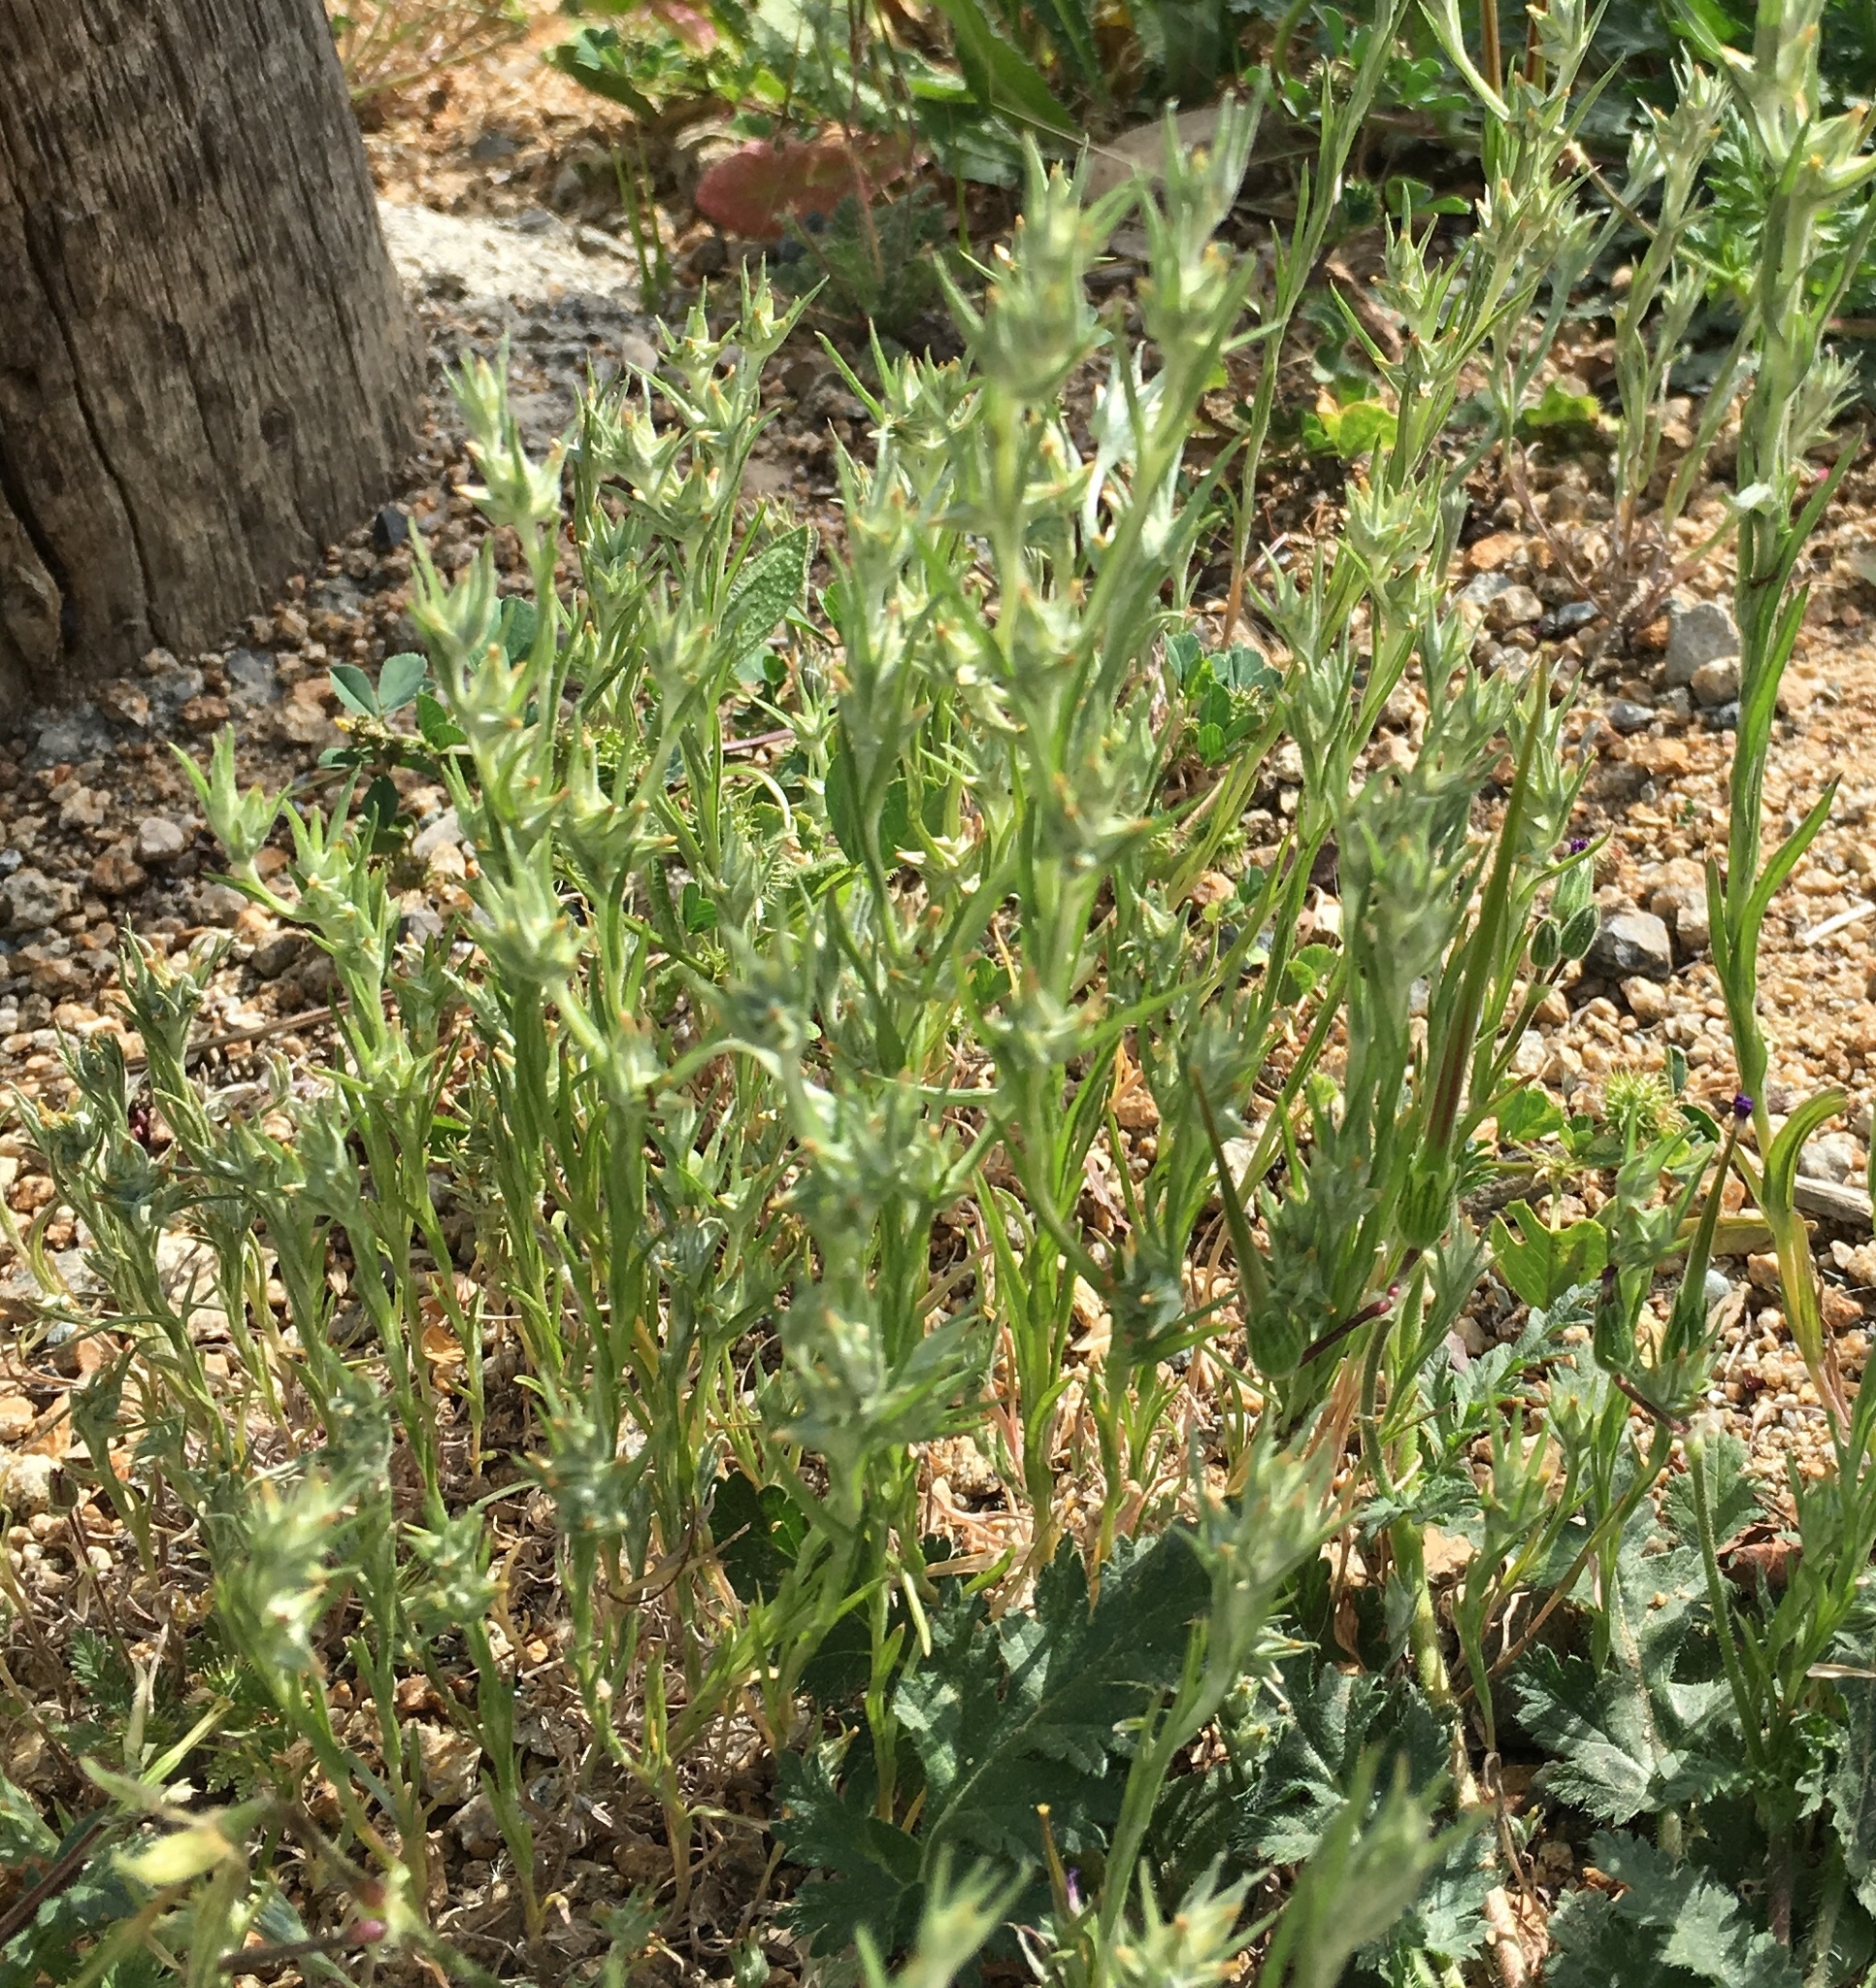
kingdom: Plantae
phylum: Tracheophyta
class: Magnoliopsida
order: Asterales
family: Asteraceae
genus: Logfia
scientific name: Logfia gallica
